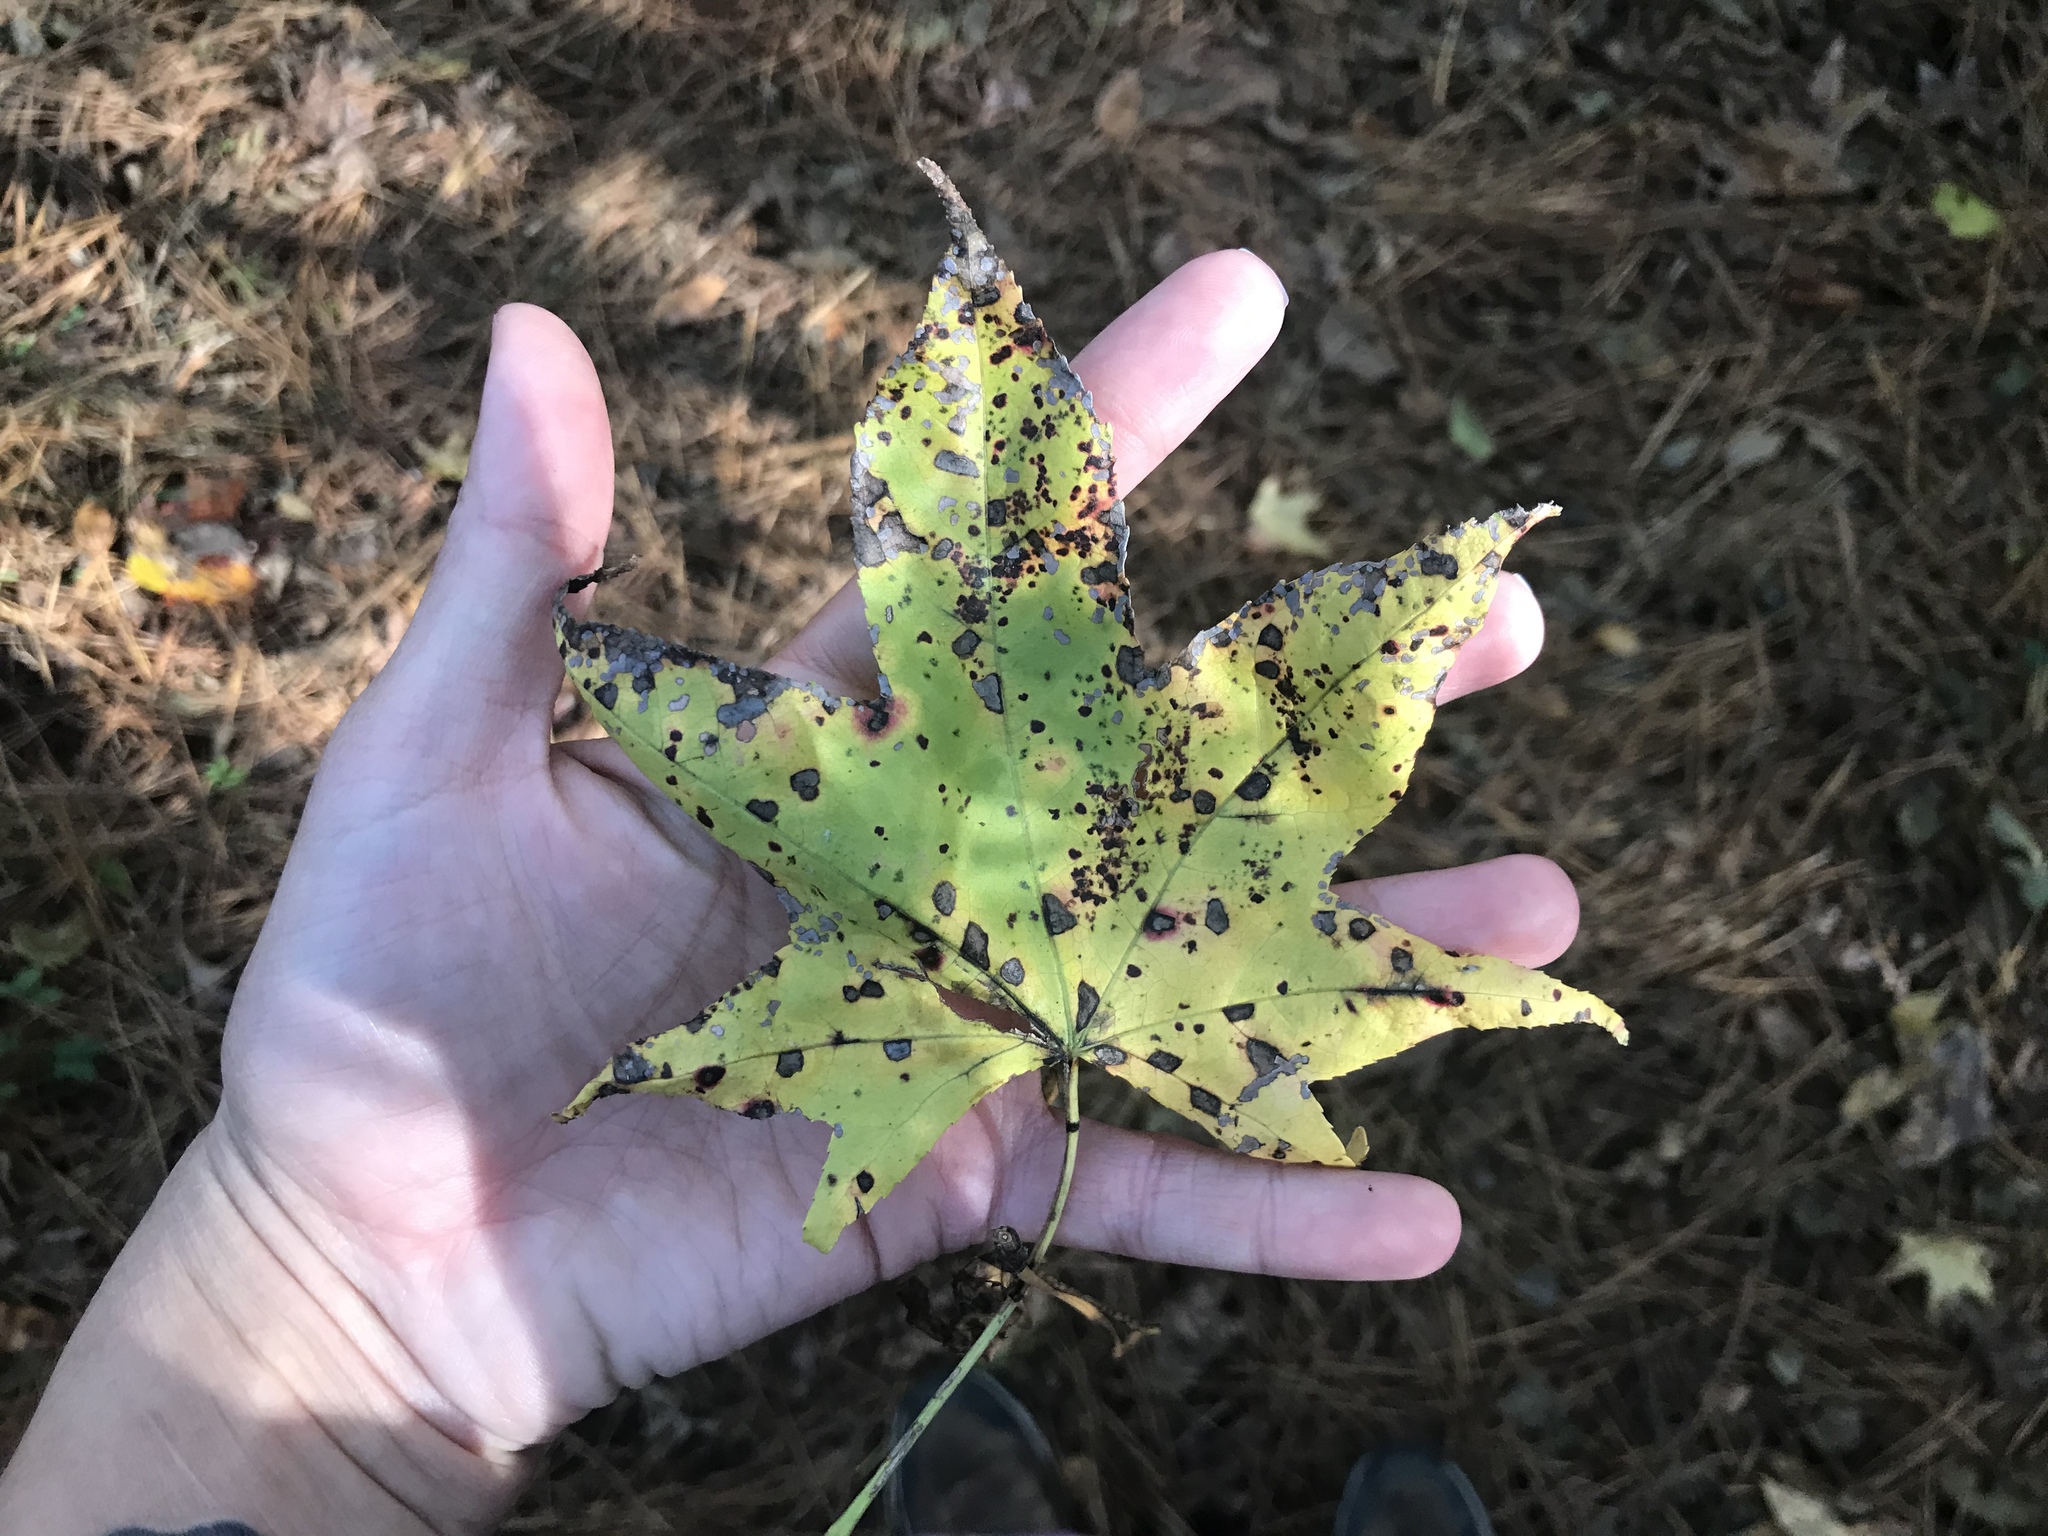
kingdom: Plantae
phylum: Tracheophyta
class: Magnoliopsida
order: Saxifragales
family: Altingiaceae
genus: Liquidambar
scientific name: Liquidambar styraciflua
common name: Sweet gum
